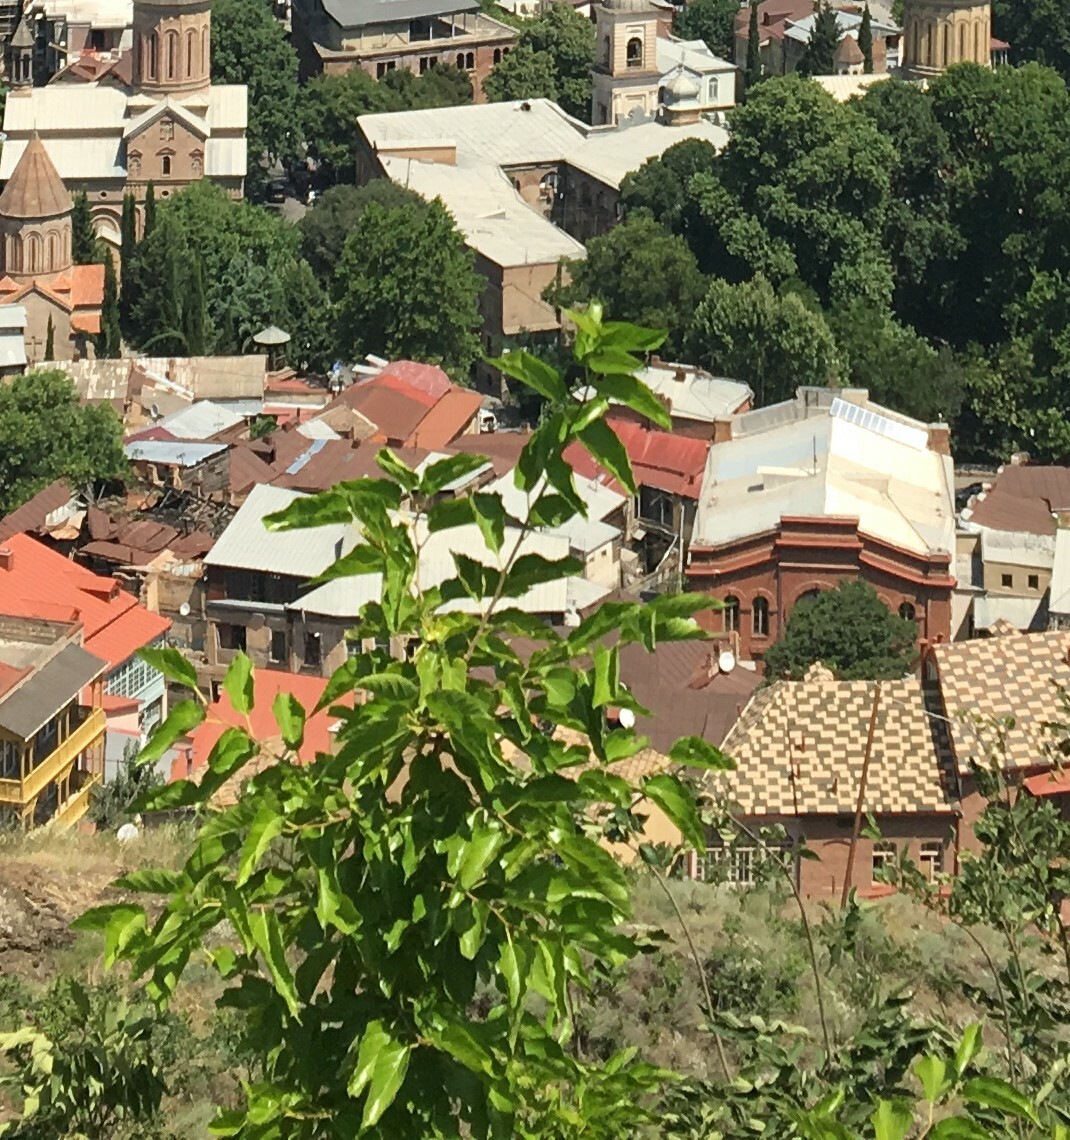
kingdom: Plantae
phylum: Tracheophyta
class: Magnoliopsida
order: Rosales
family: Moraceae
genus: Morus
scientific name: Morus alba
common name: White mulberry
